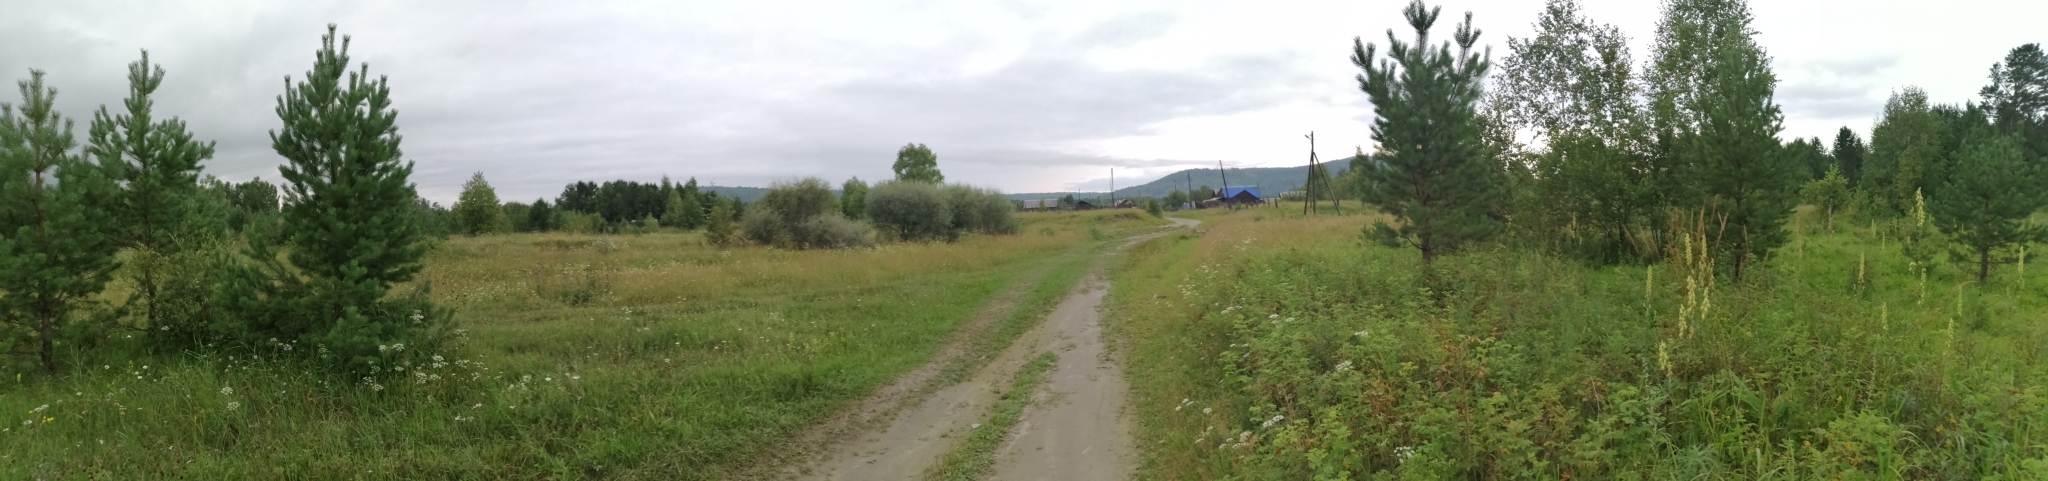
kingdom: Plantae
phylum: Tracheophyta
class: Pinopsida
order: Pinales
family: Pinaceae
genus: Pinus
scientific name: Pinus sylvestris
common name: Scots pine
